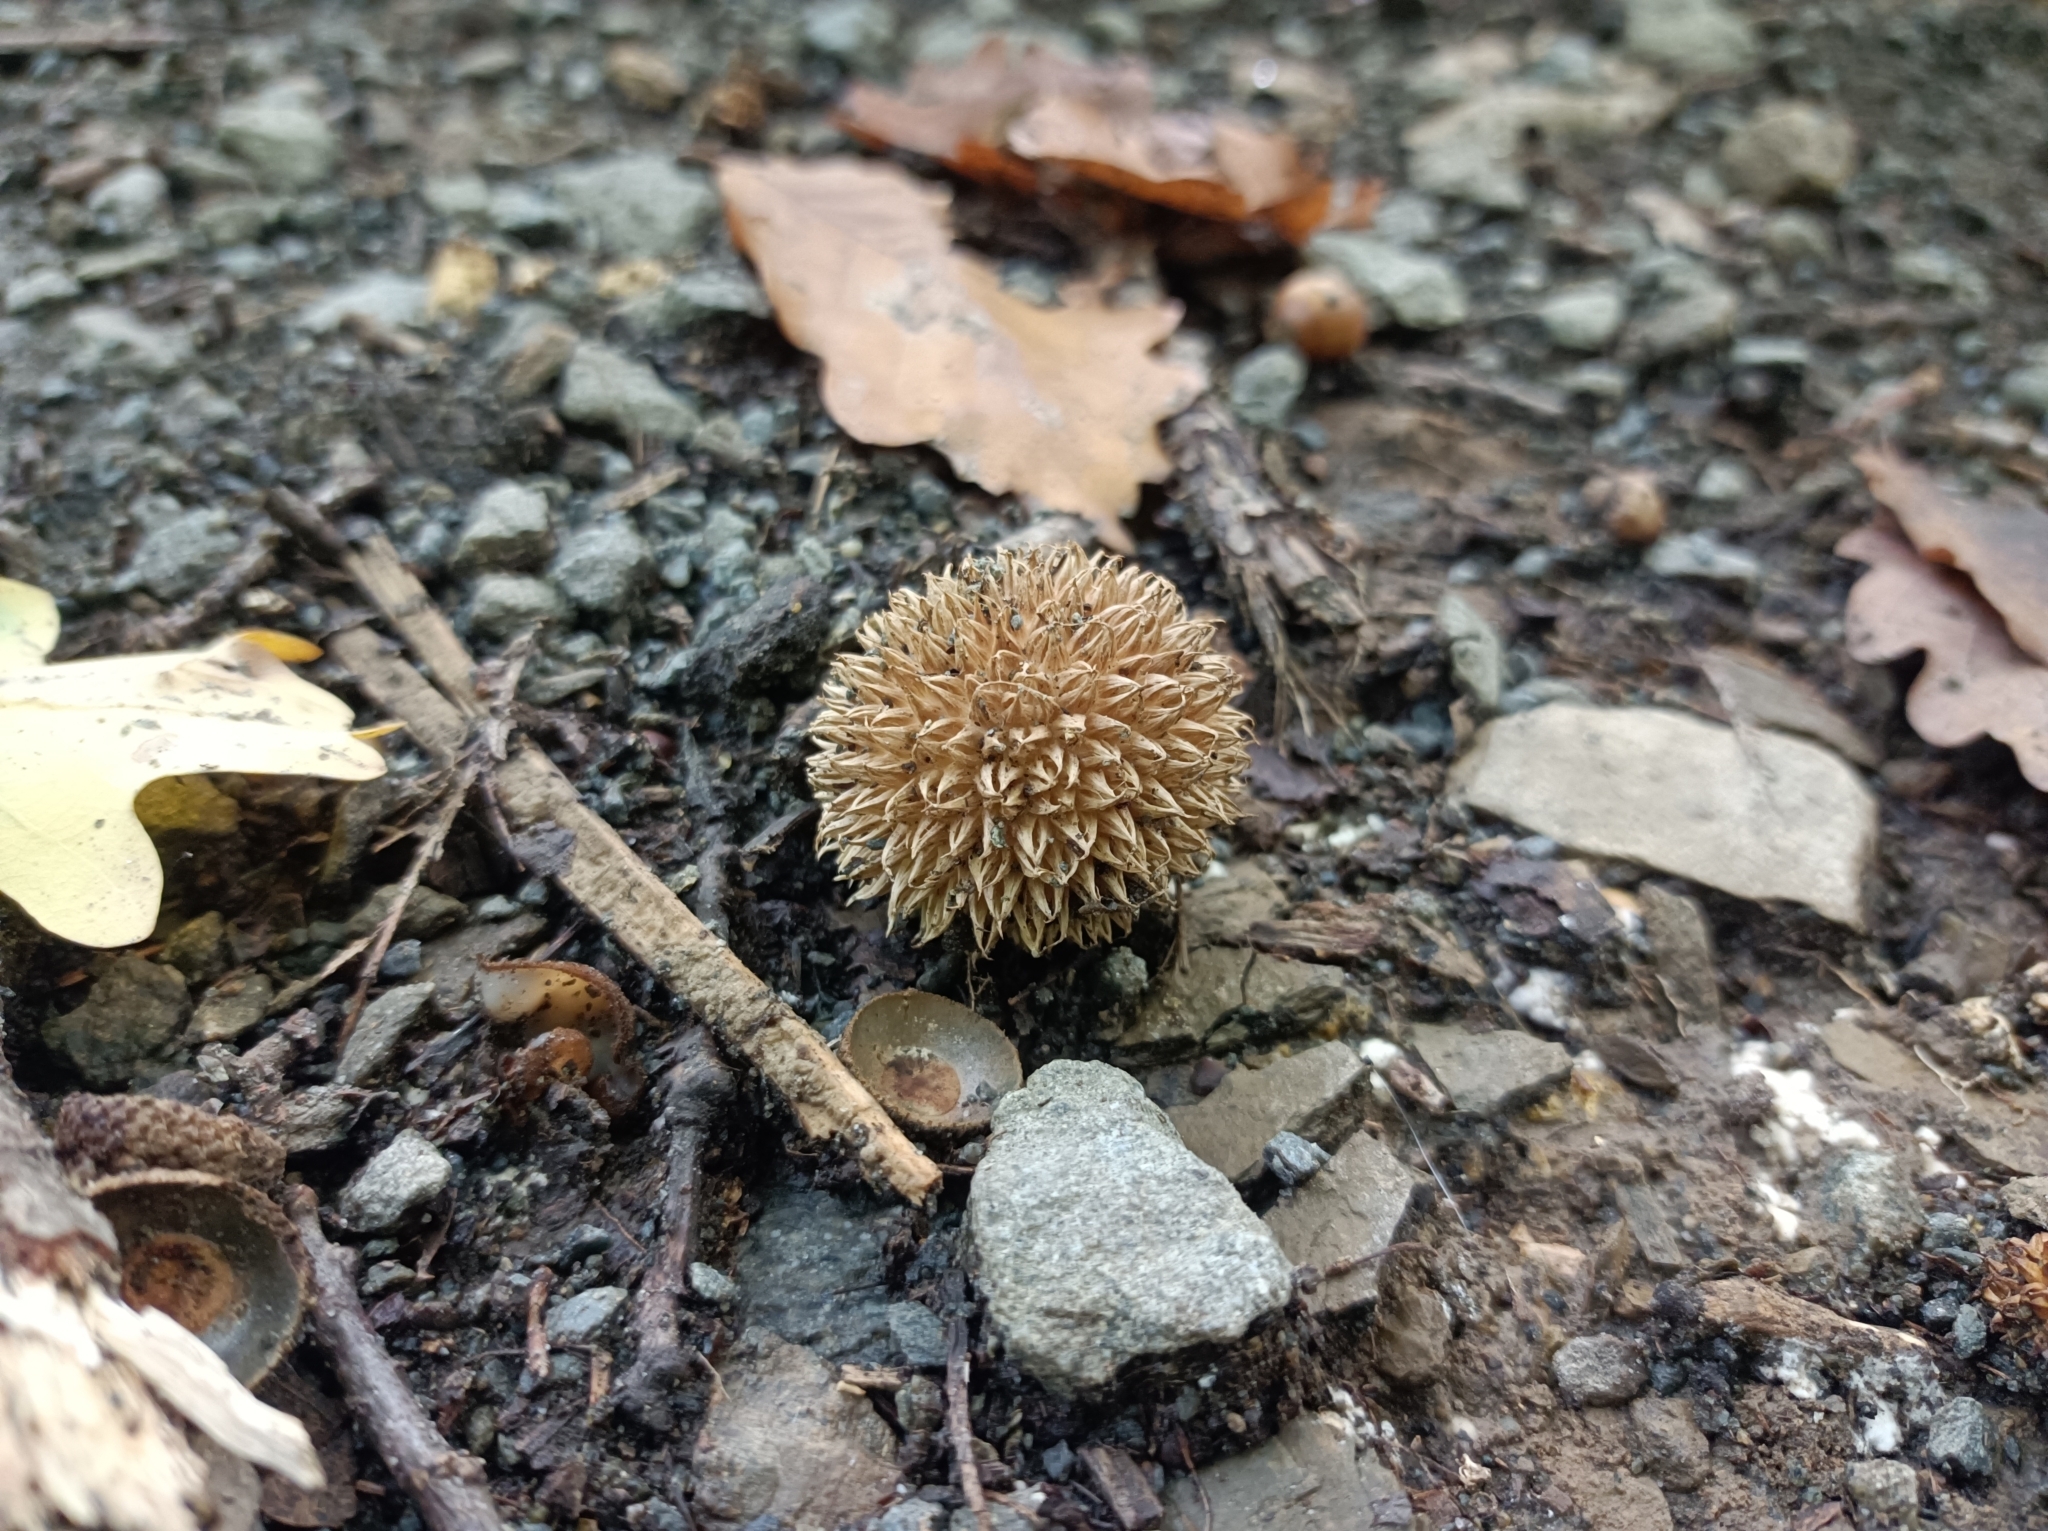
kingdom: Fungi
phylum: Basidiomycota
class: Agaricomycetes
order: Agaricales
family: Lycoperdaceae
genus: Lycoperdon
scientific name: Lycoperdon echinatum
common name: Hedgehog puffball
